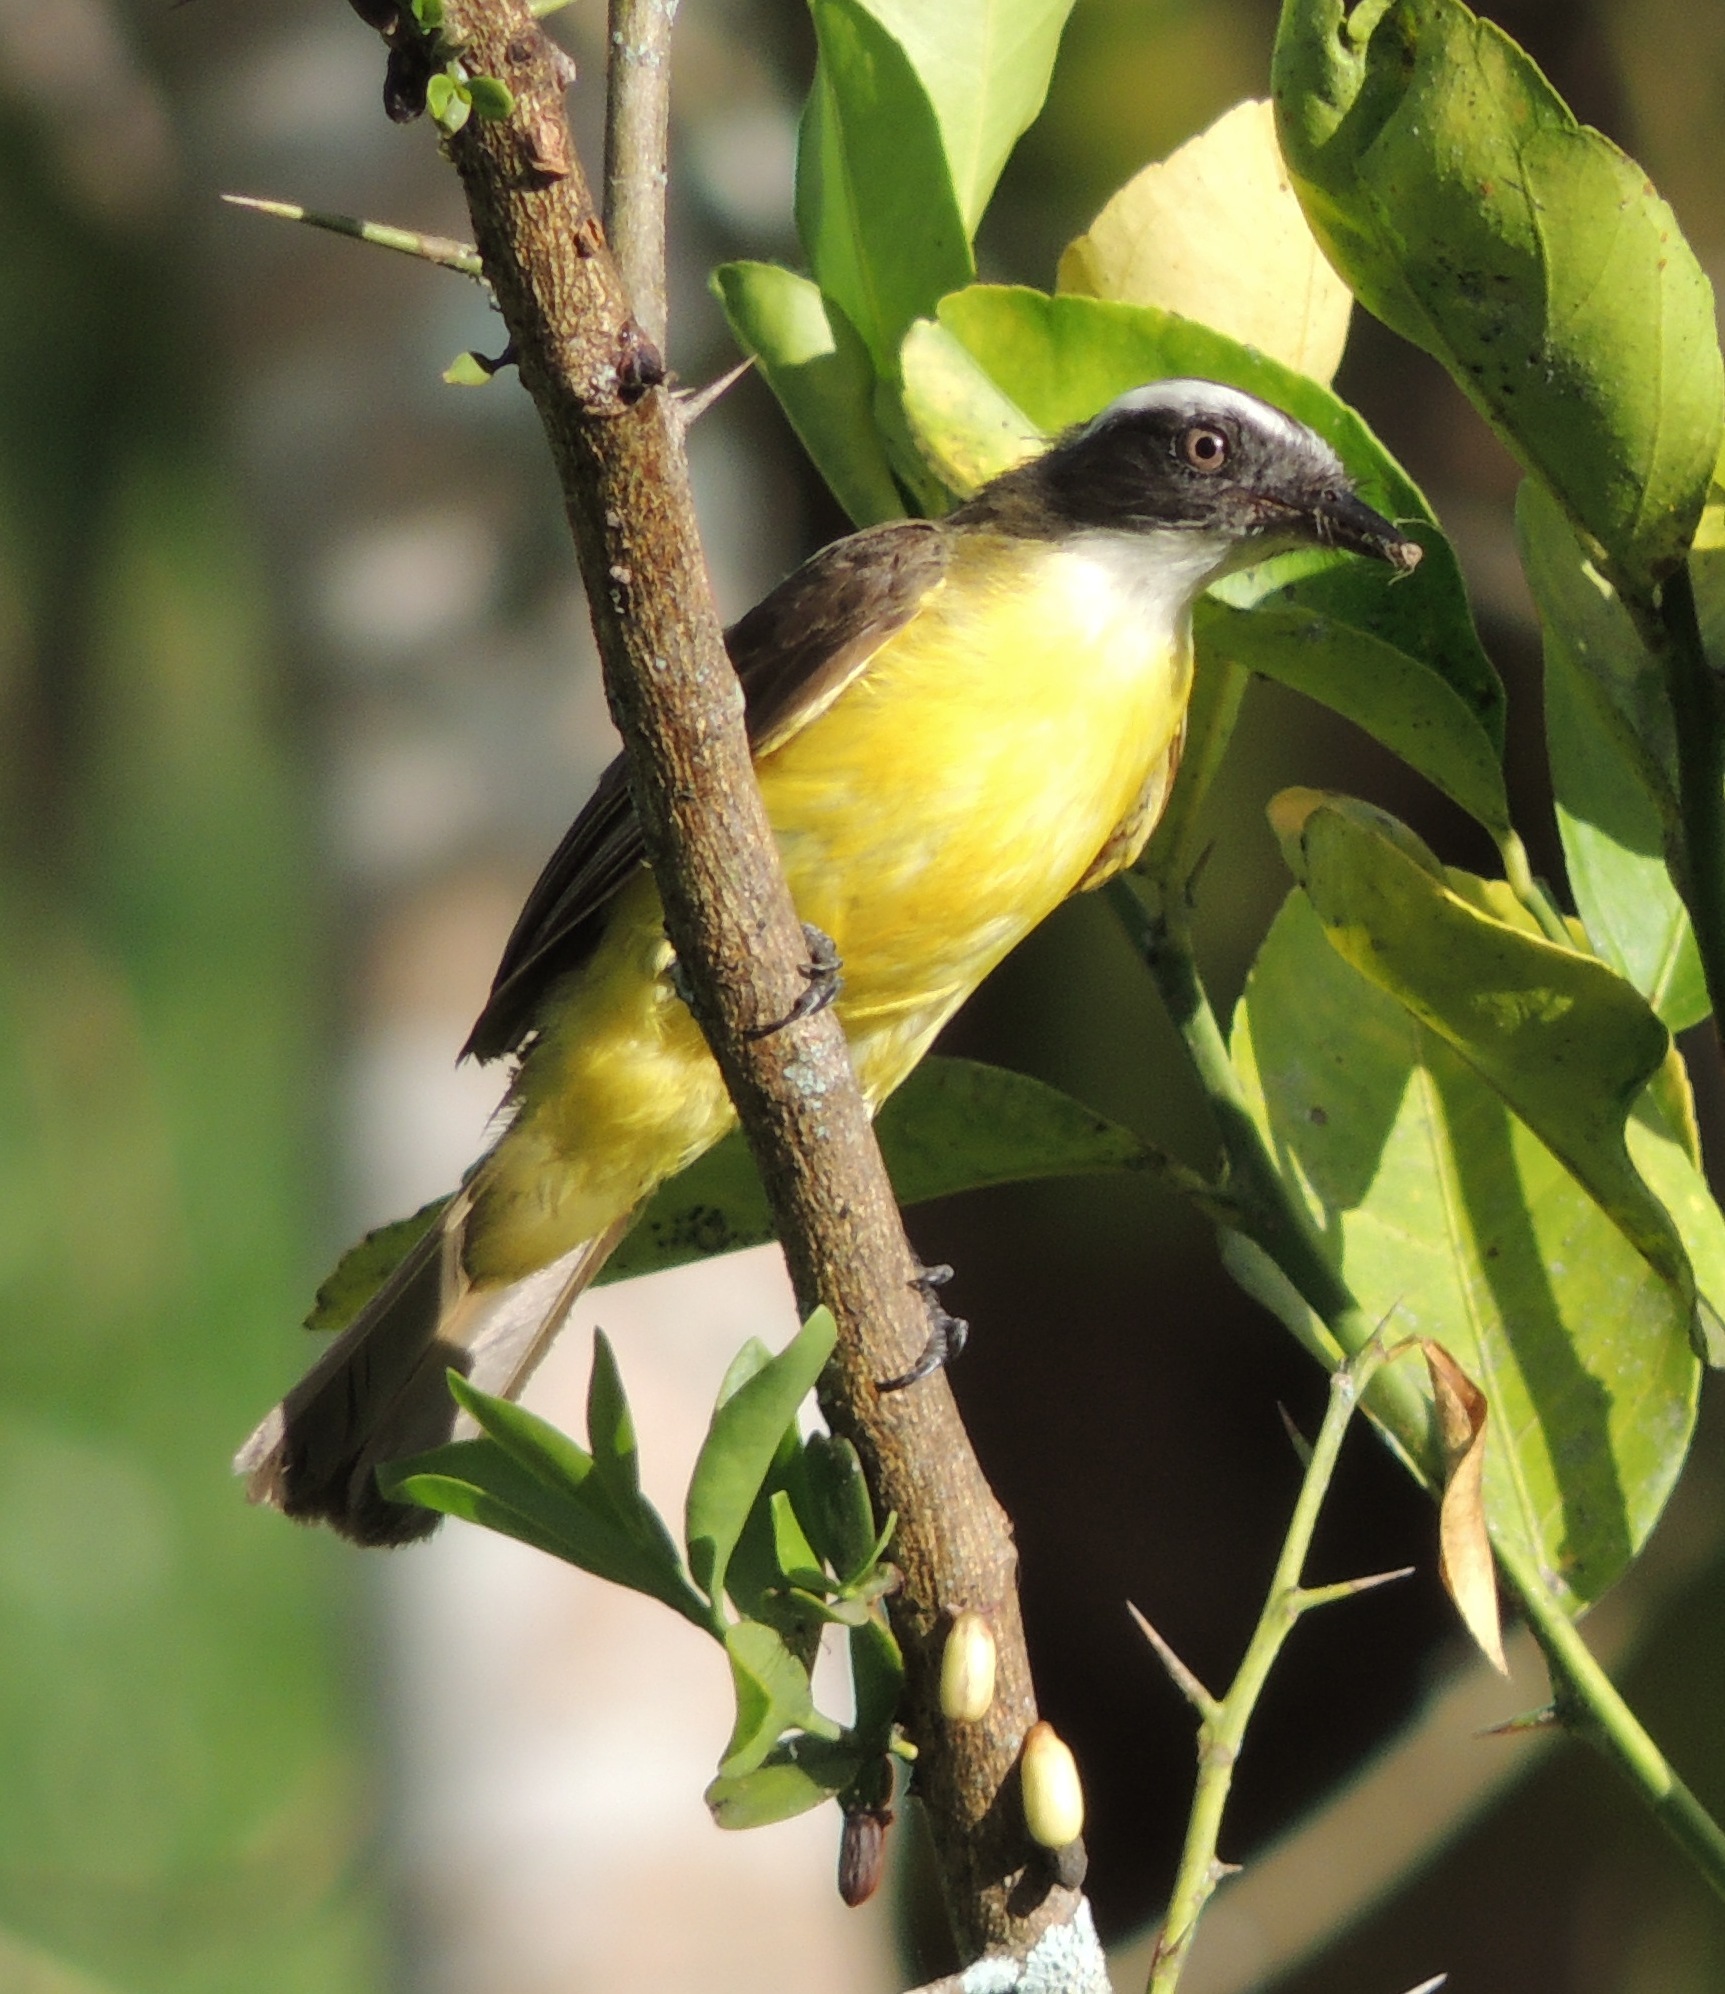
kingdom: Animalia
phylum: Chordata
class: Aves
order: Passeriformes
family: Tyrannidae
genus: Myiozetetes
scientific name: Myiozetetes similis
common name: Social flycatcher
